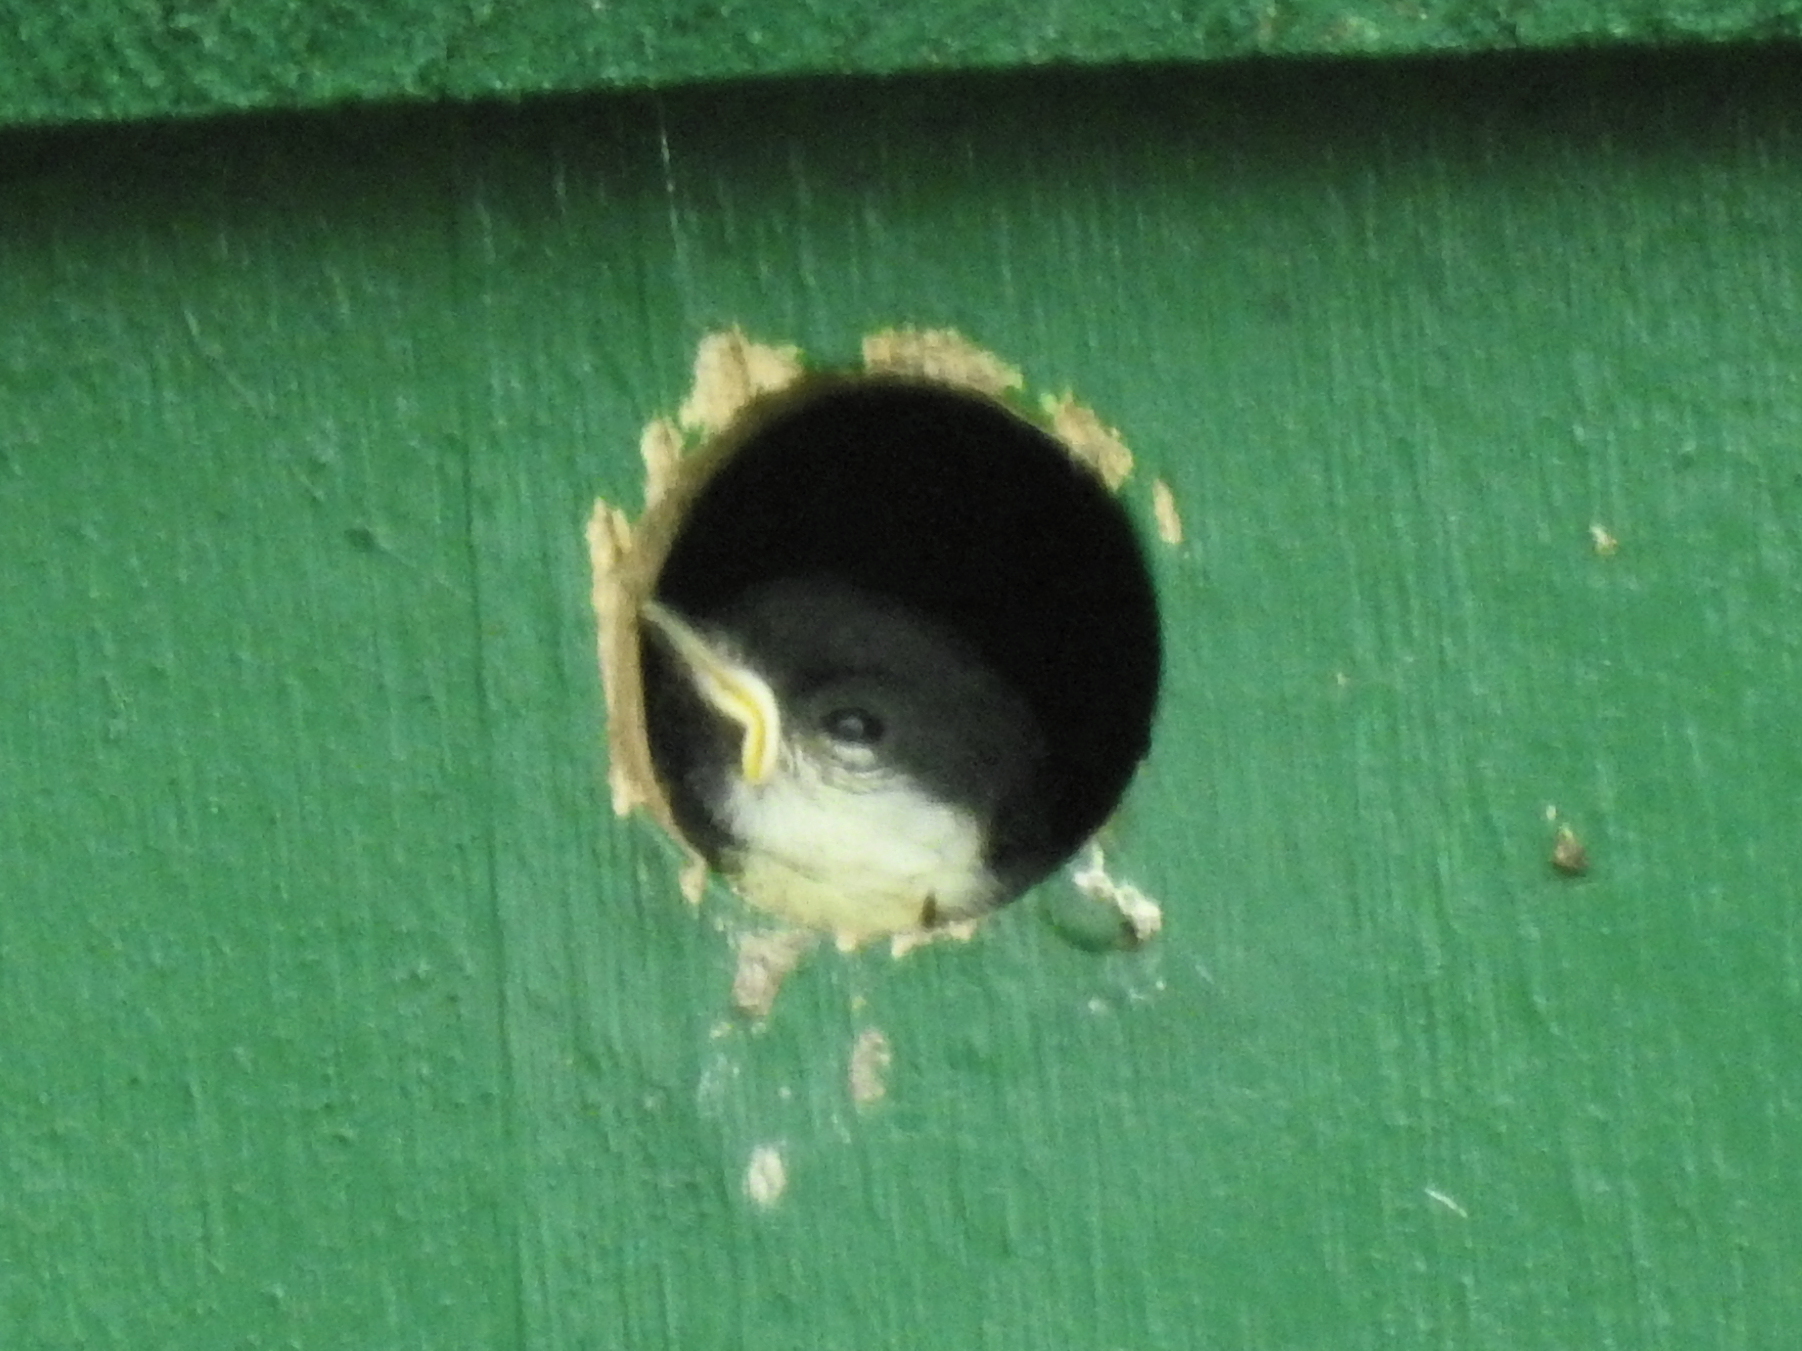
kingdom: Animalia
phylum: Chordata
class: Aves
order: Passeriformes
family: Paridae
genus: Parus
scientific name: Parus major
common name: Great tit
